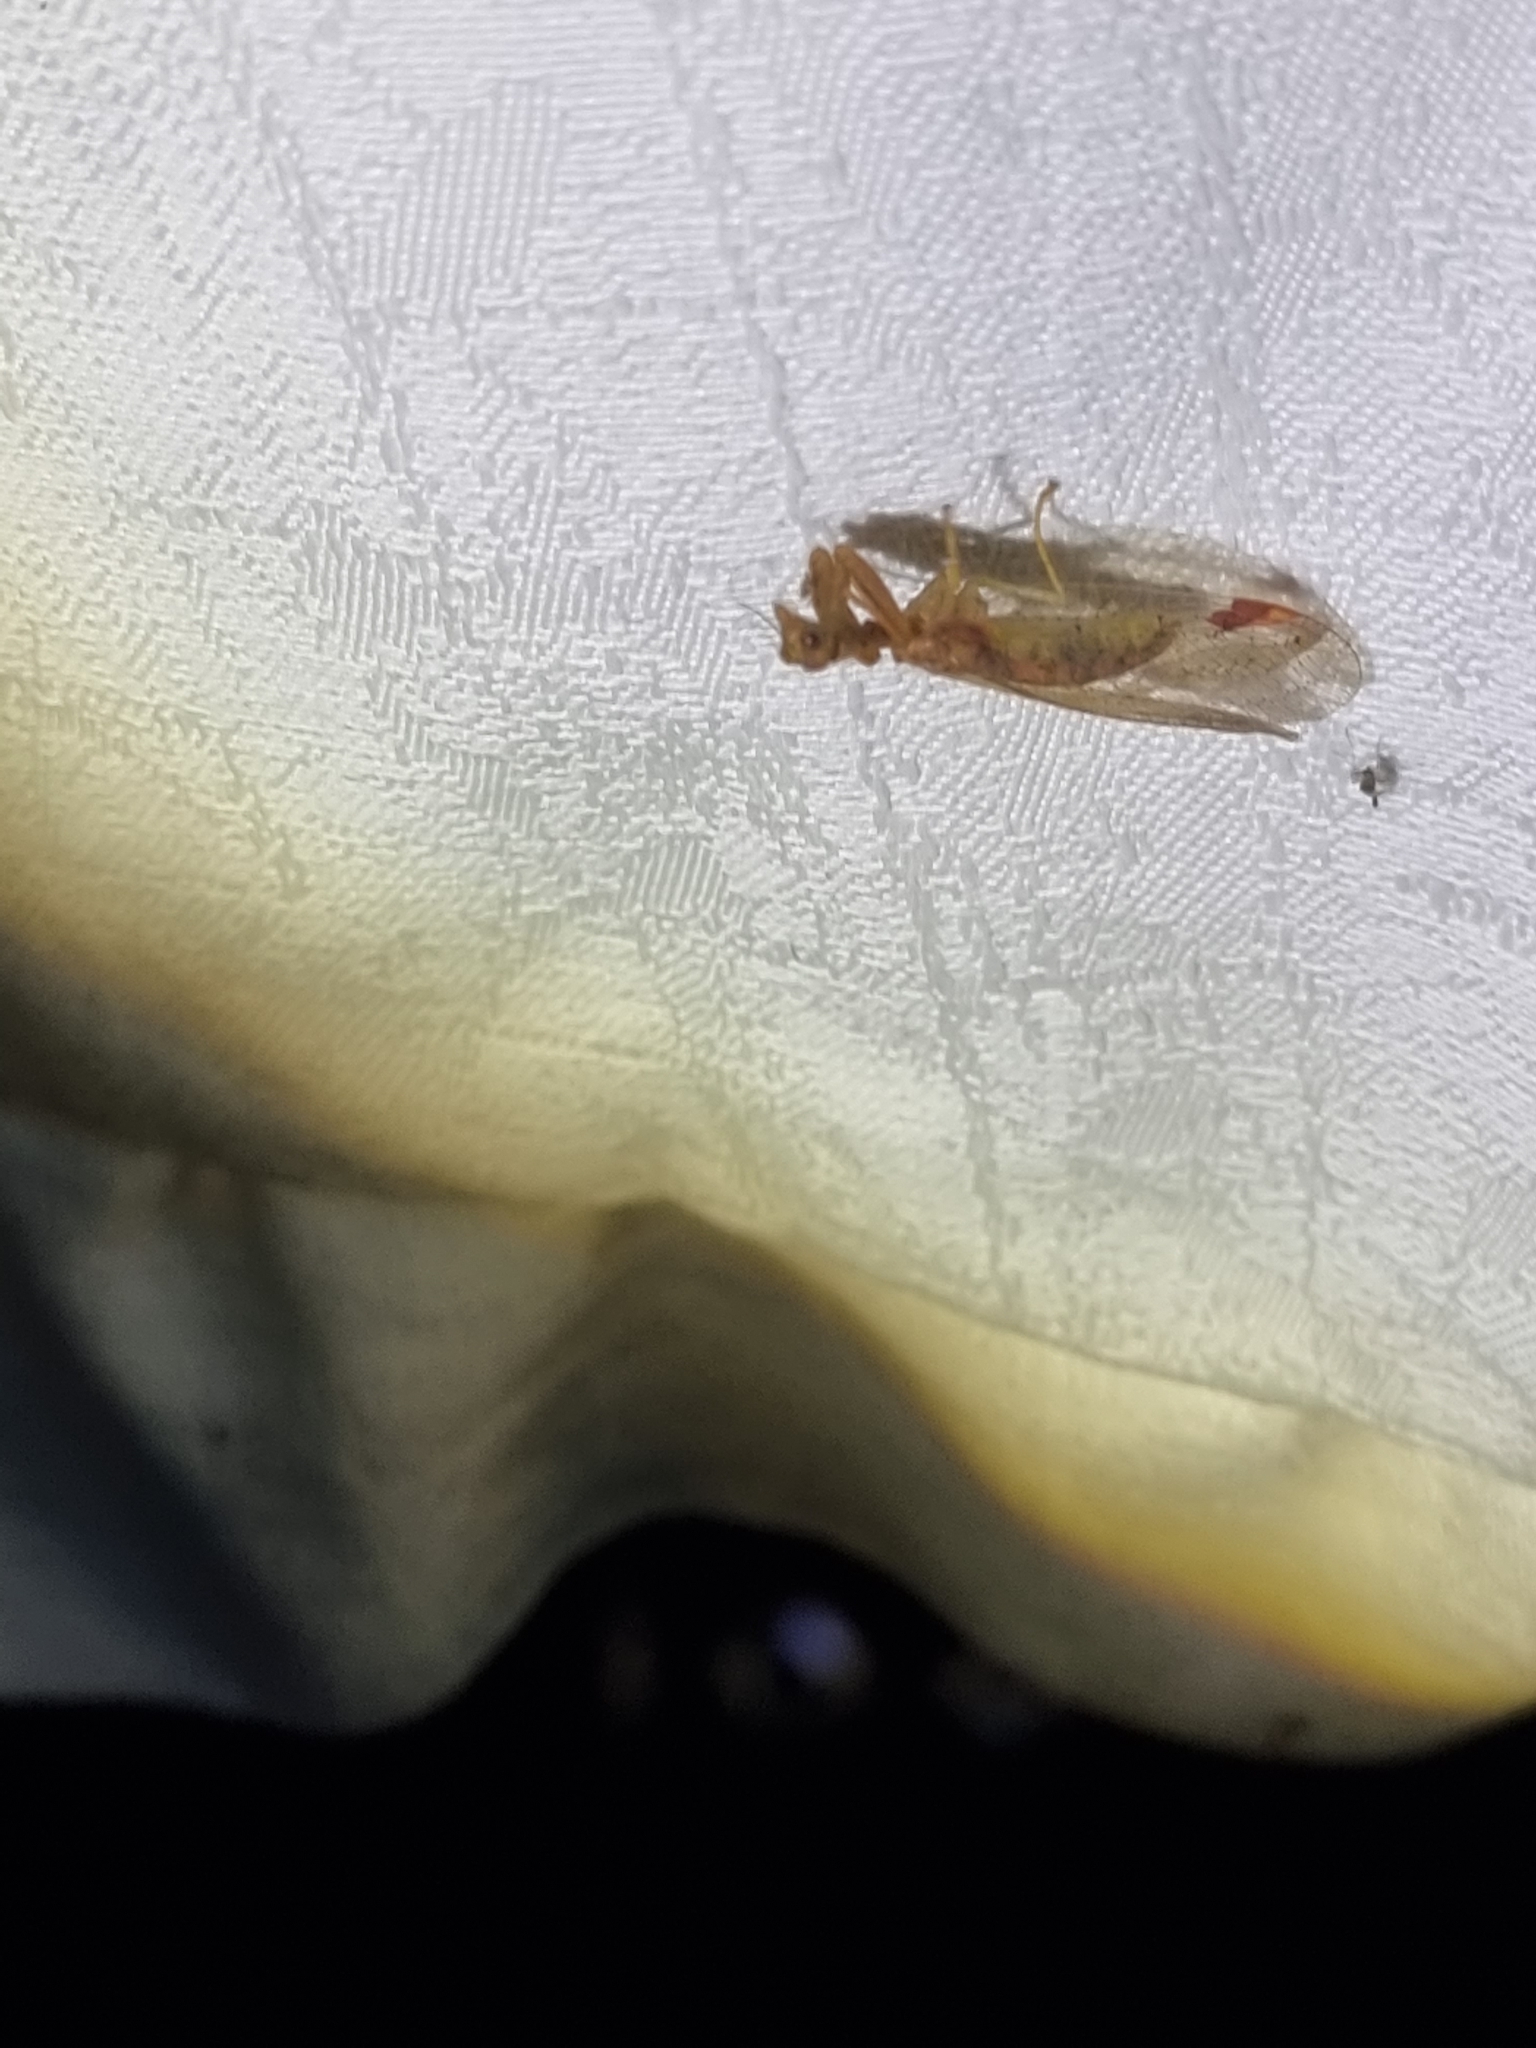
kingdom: Animalia
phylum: Arthropoda
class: Insecta
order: Neuroptera
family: Mantispidae
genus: Ditaxis
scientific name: Ditaxis biseriata
